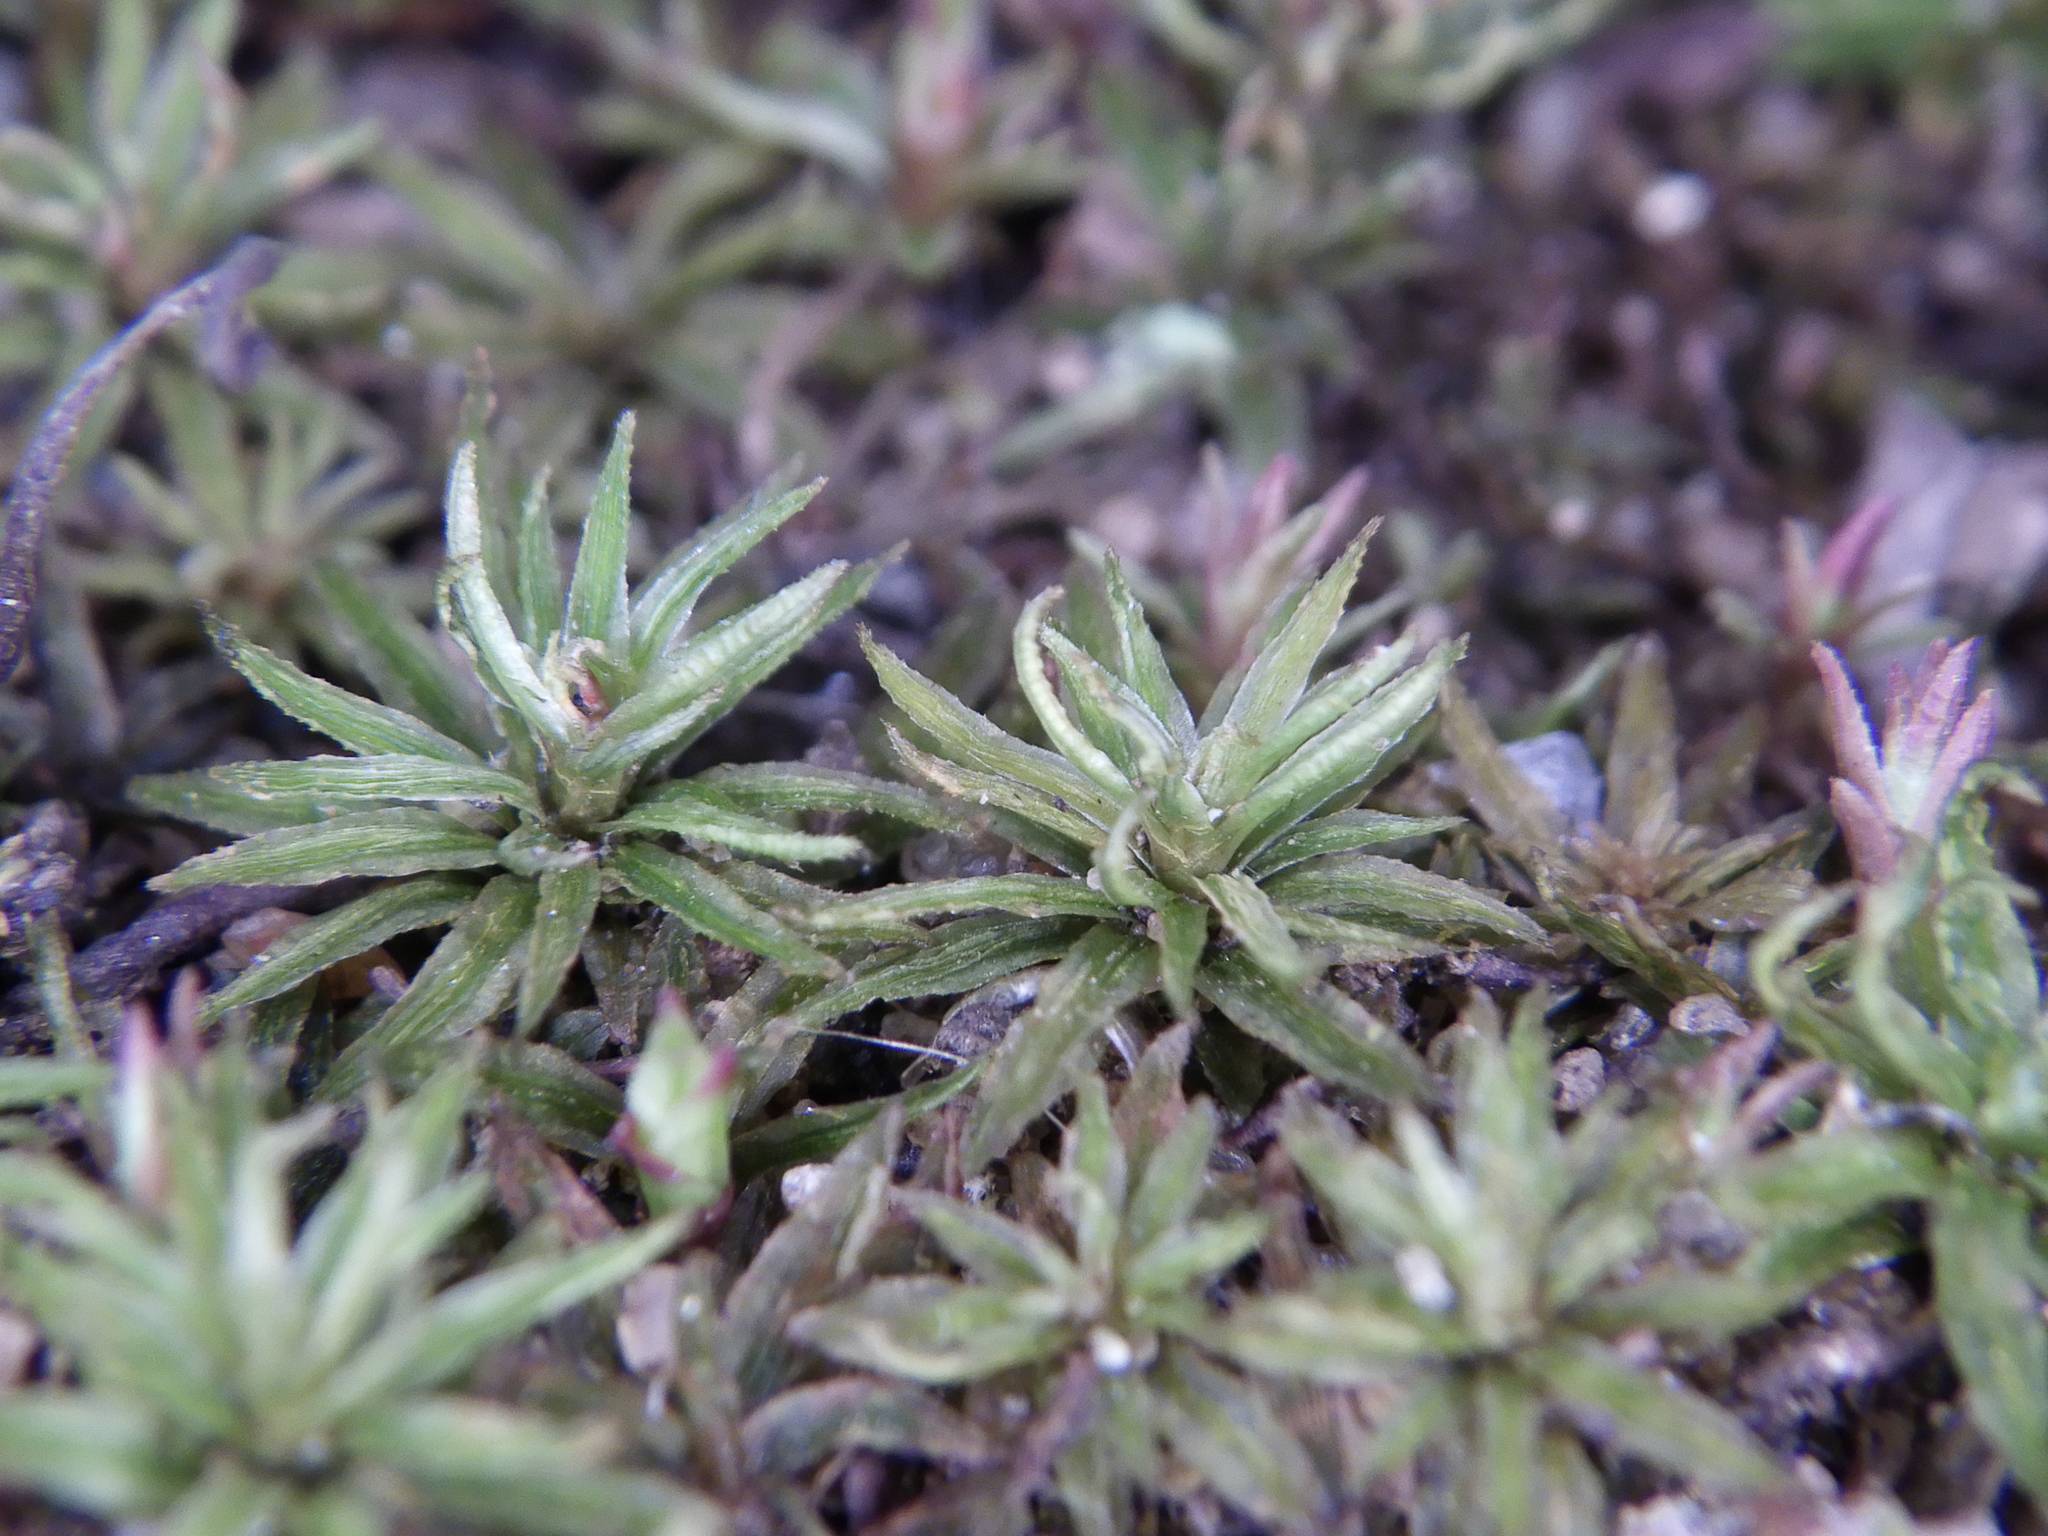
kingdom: Plantae
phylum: Bryophyta
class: Polytrichopsida
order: Polytrichales
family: Polytrichaceae
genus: Atrichum
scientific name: Atrichum angustatum
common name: Lesser smoothcap
